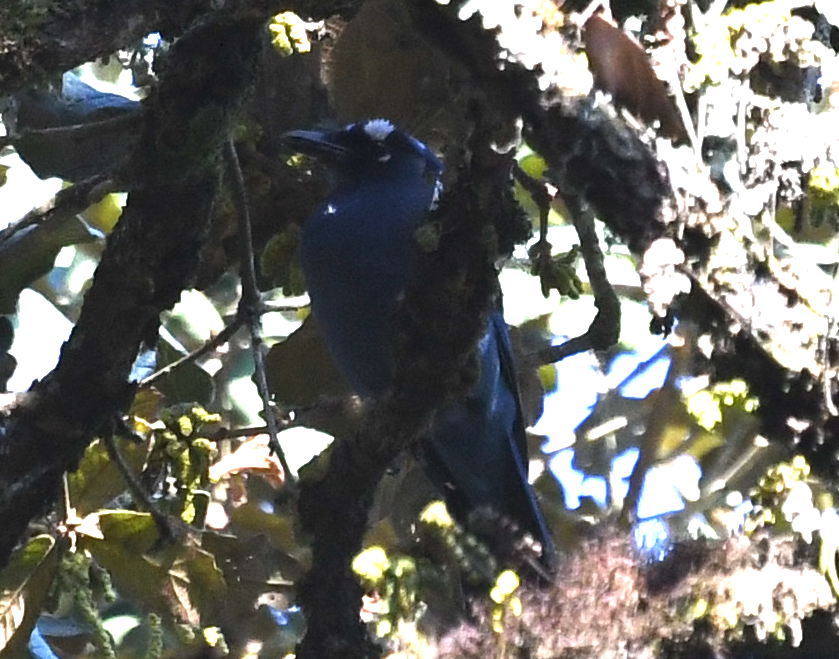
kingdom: Animalia
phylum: Chordata
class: Aves
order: Passeriformes
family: Corvidae
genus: Cyanocitta
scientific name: Cyanocitta stelleri
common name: Steller's jay
